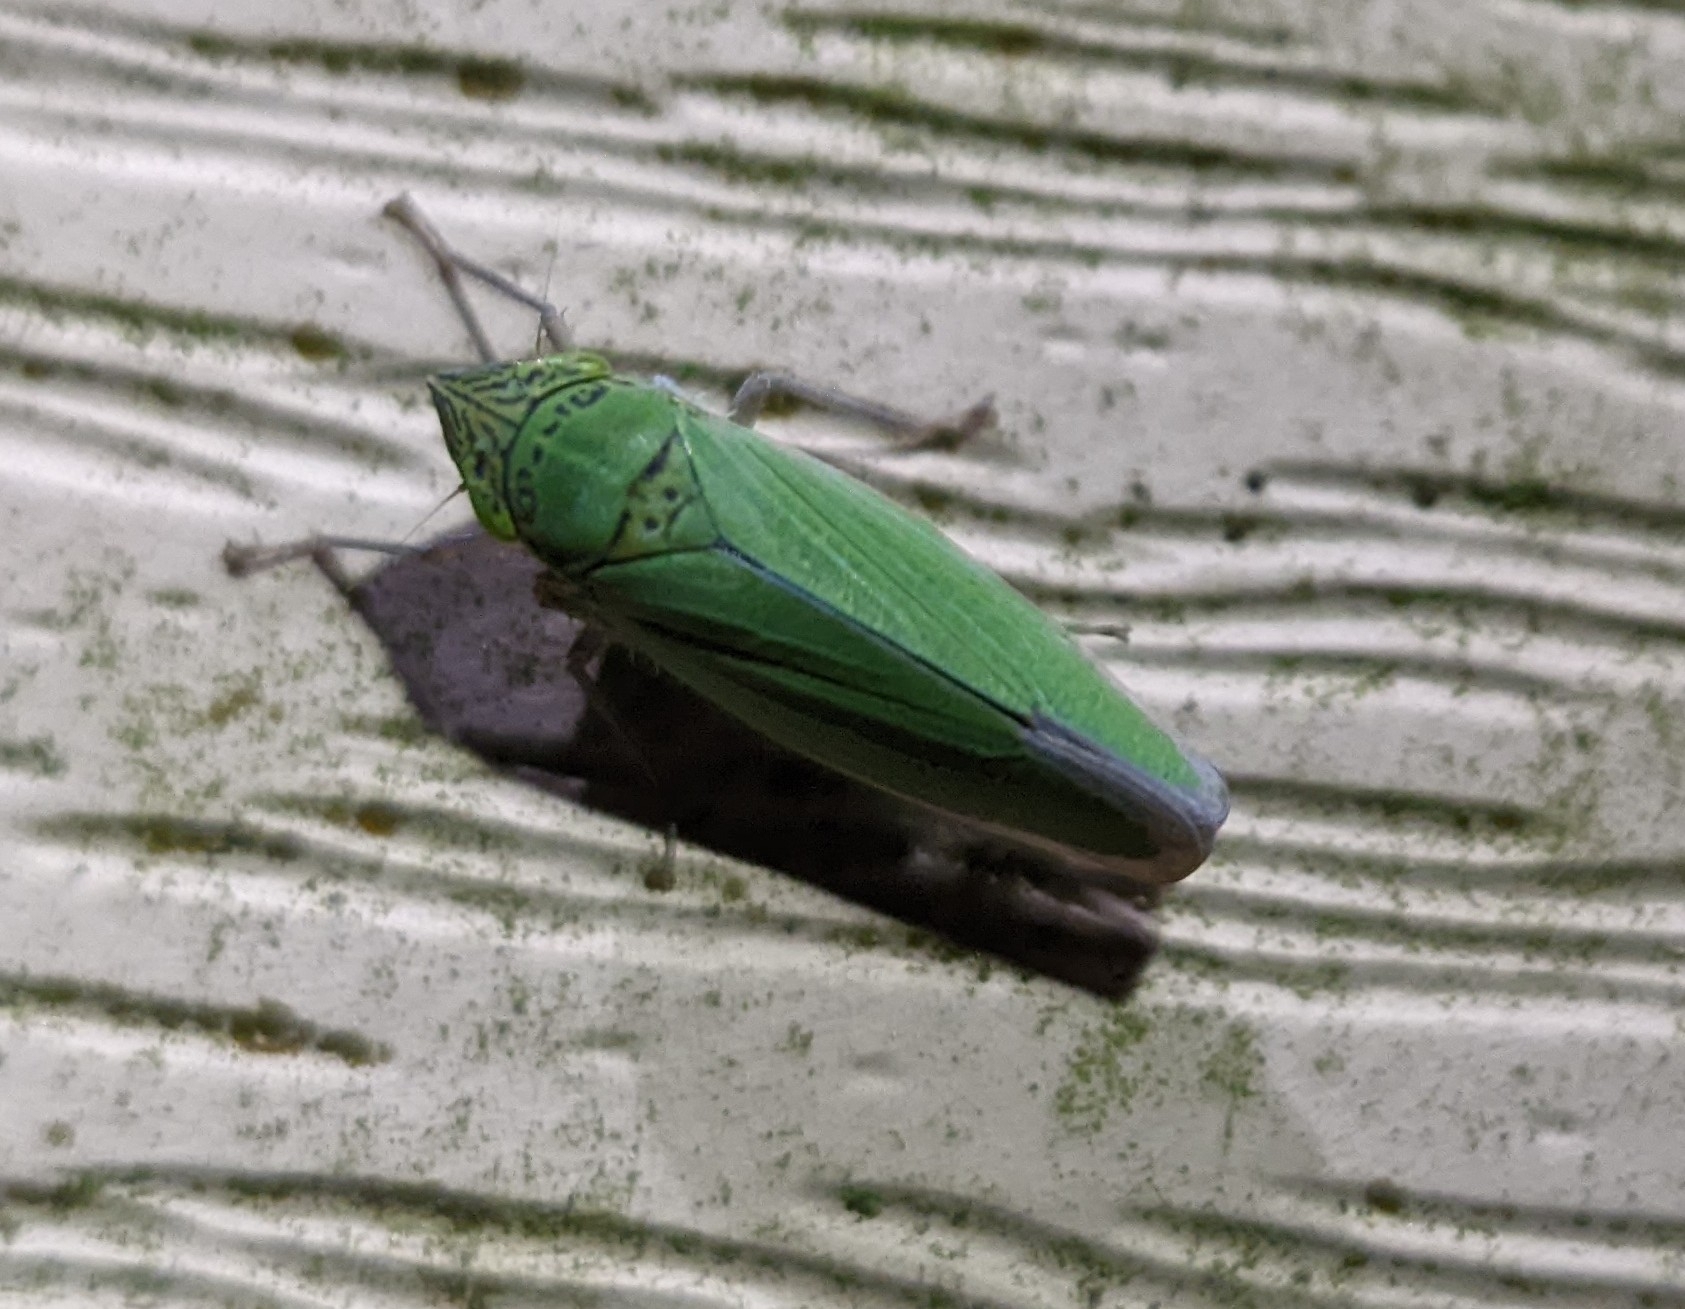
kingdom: Animalia
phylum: Arthropoda
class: Insecta
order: Hemiptera
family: Cicadellidae
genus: Draeculacephala
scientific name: Draeculacephala inscripta
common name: Leafhopper
